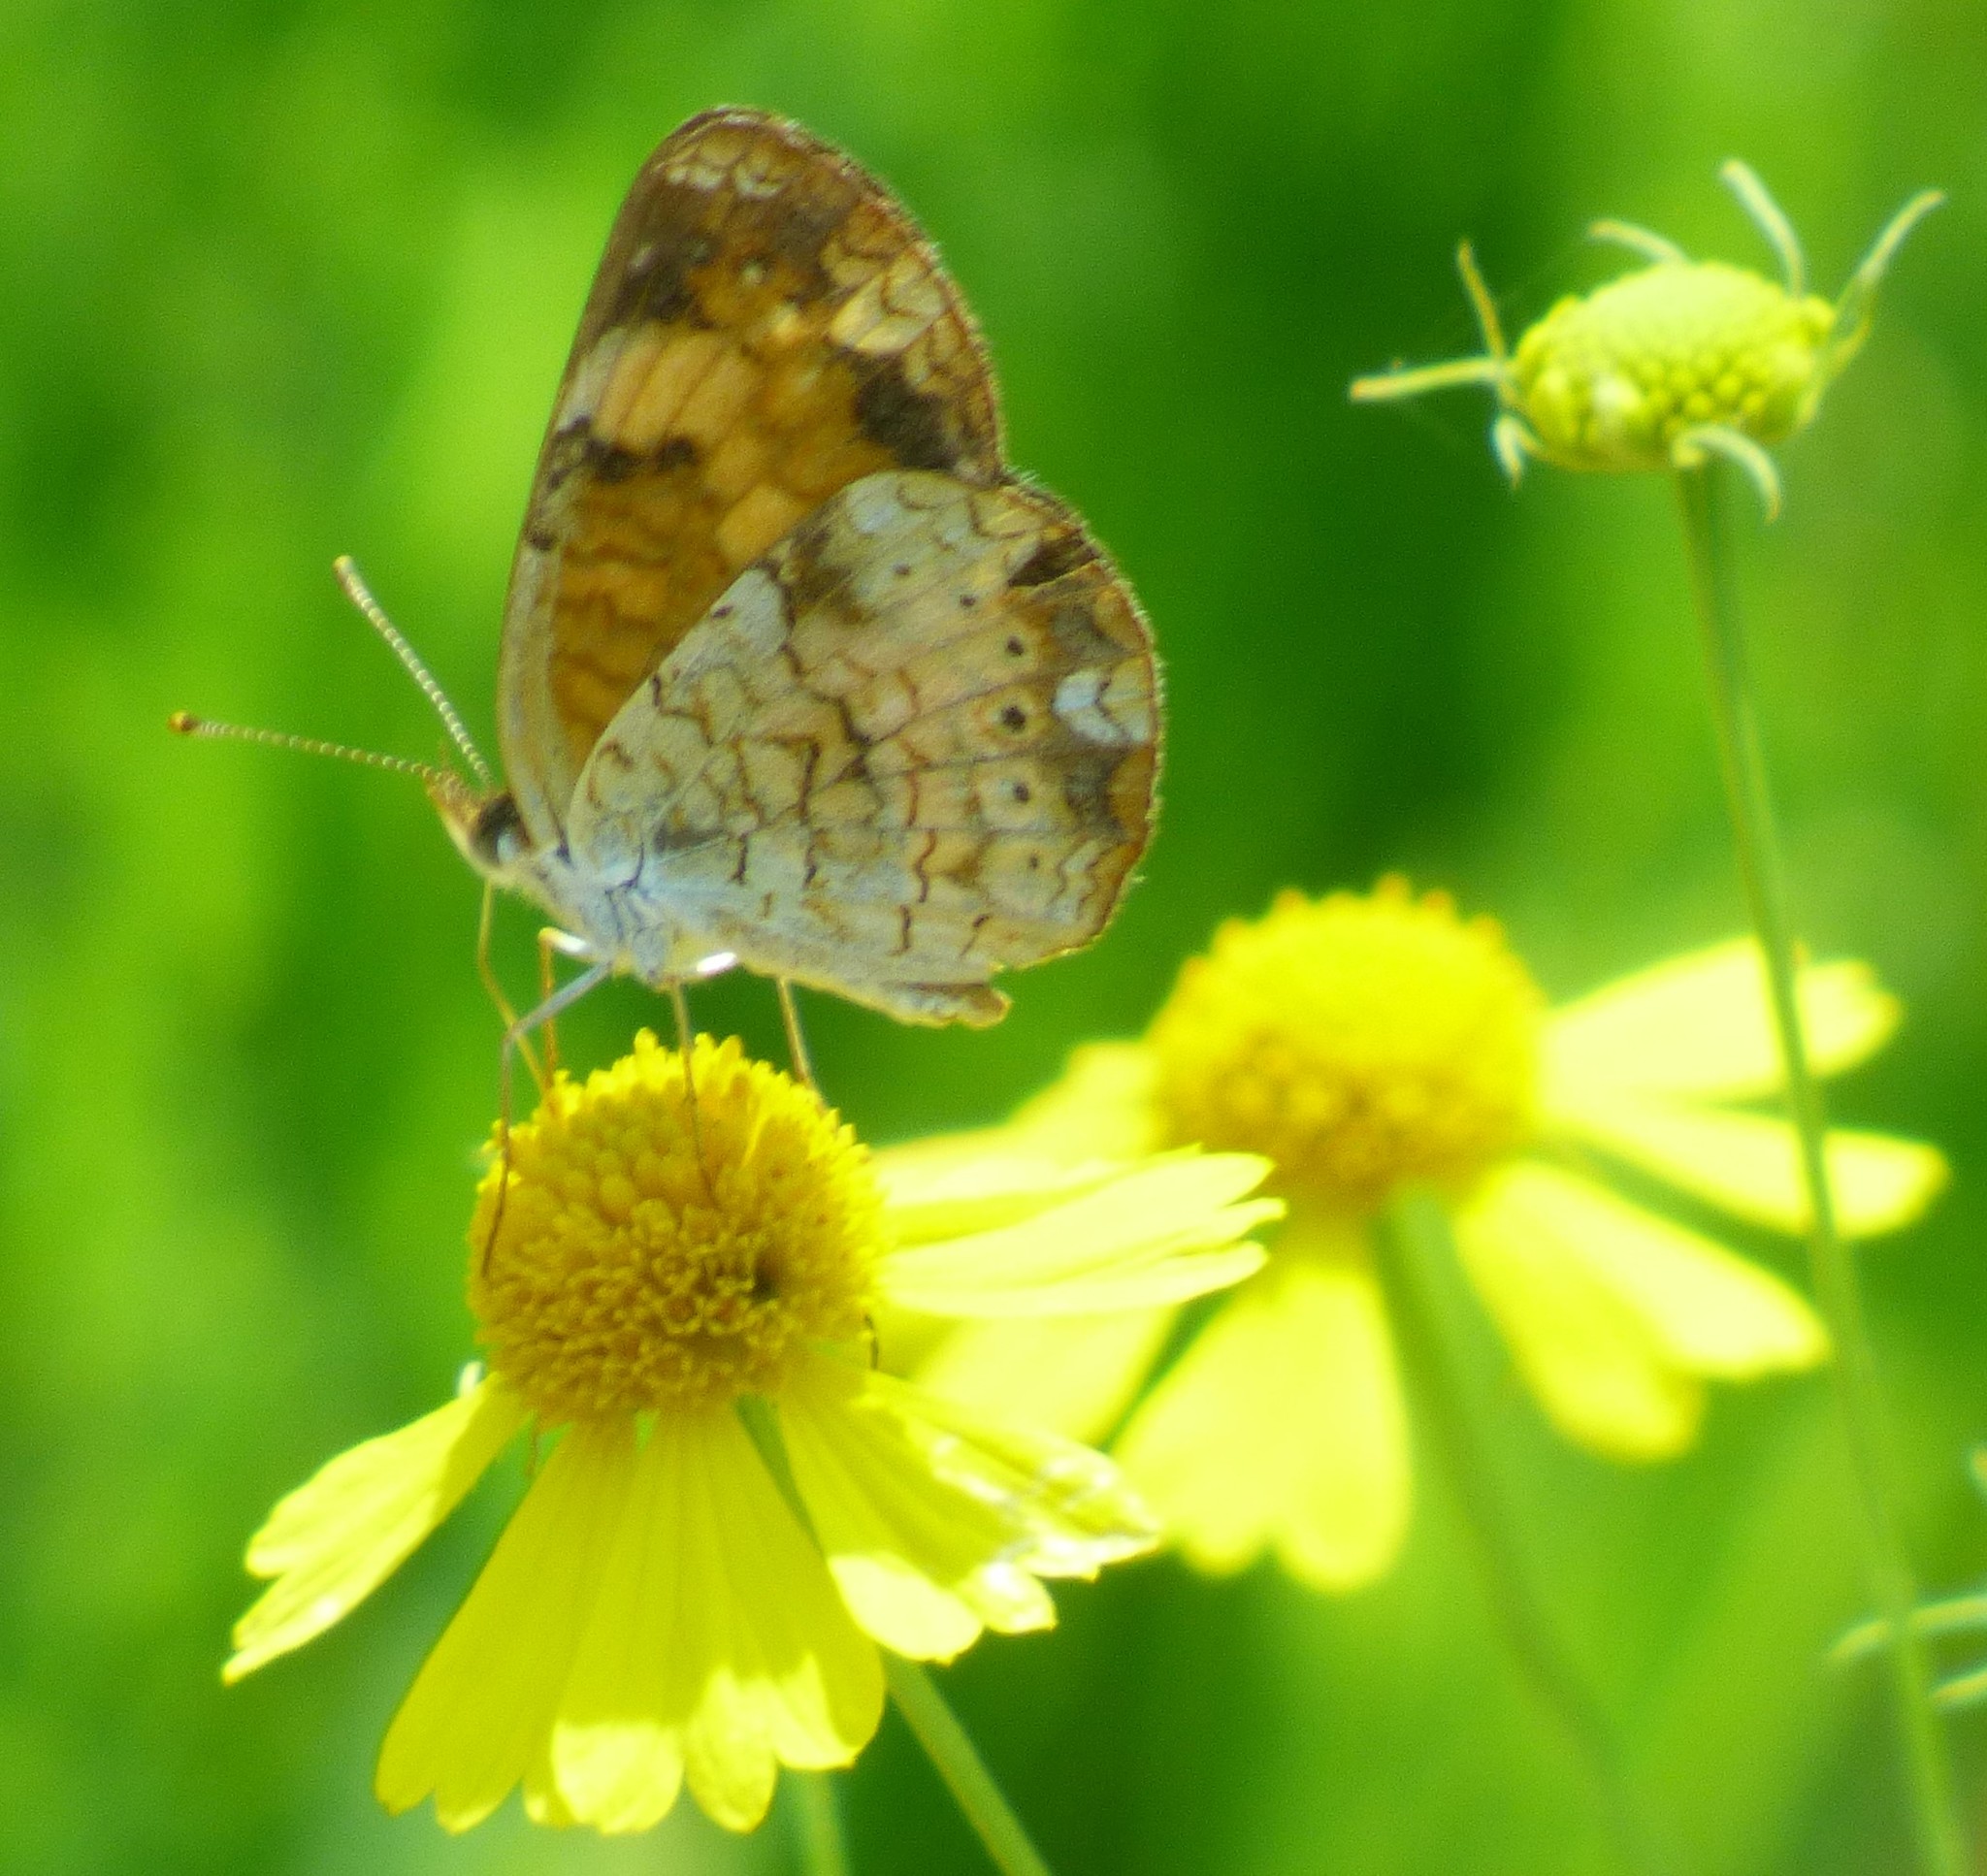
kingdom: Animalia
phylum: Arthropoda
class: Insecta
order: Lepidoptera
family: Nymphalidae
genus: Phyciodes
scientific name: Phyciodes tharos
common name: Pearl crescent
